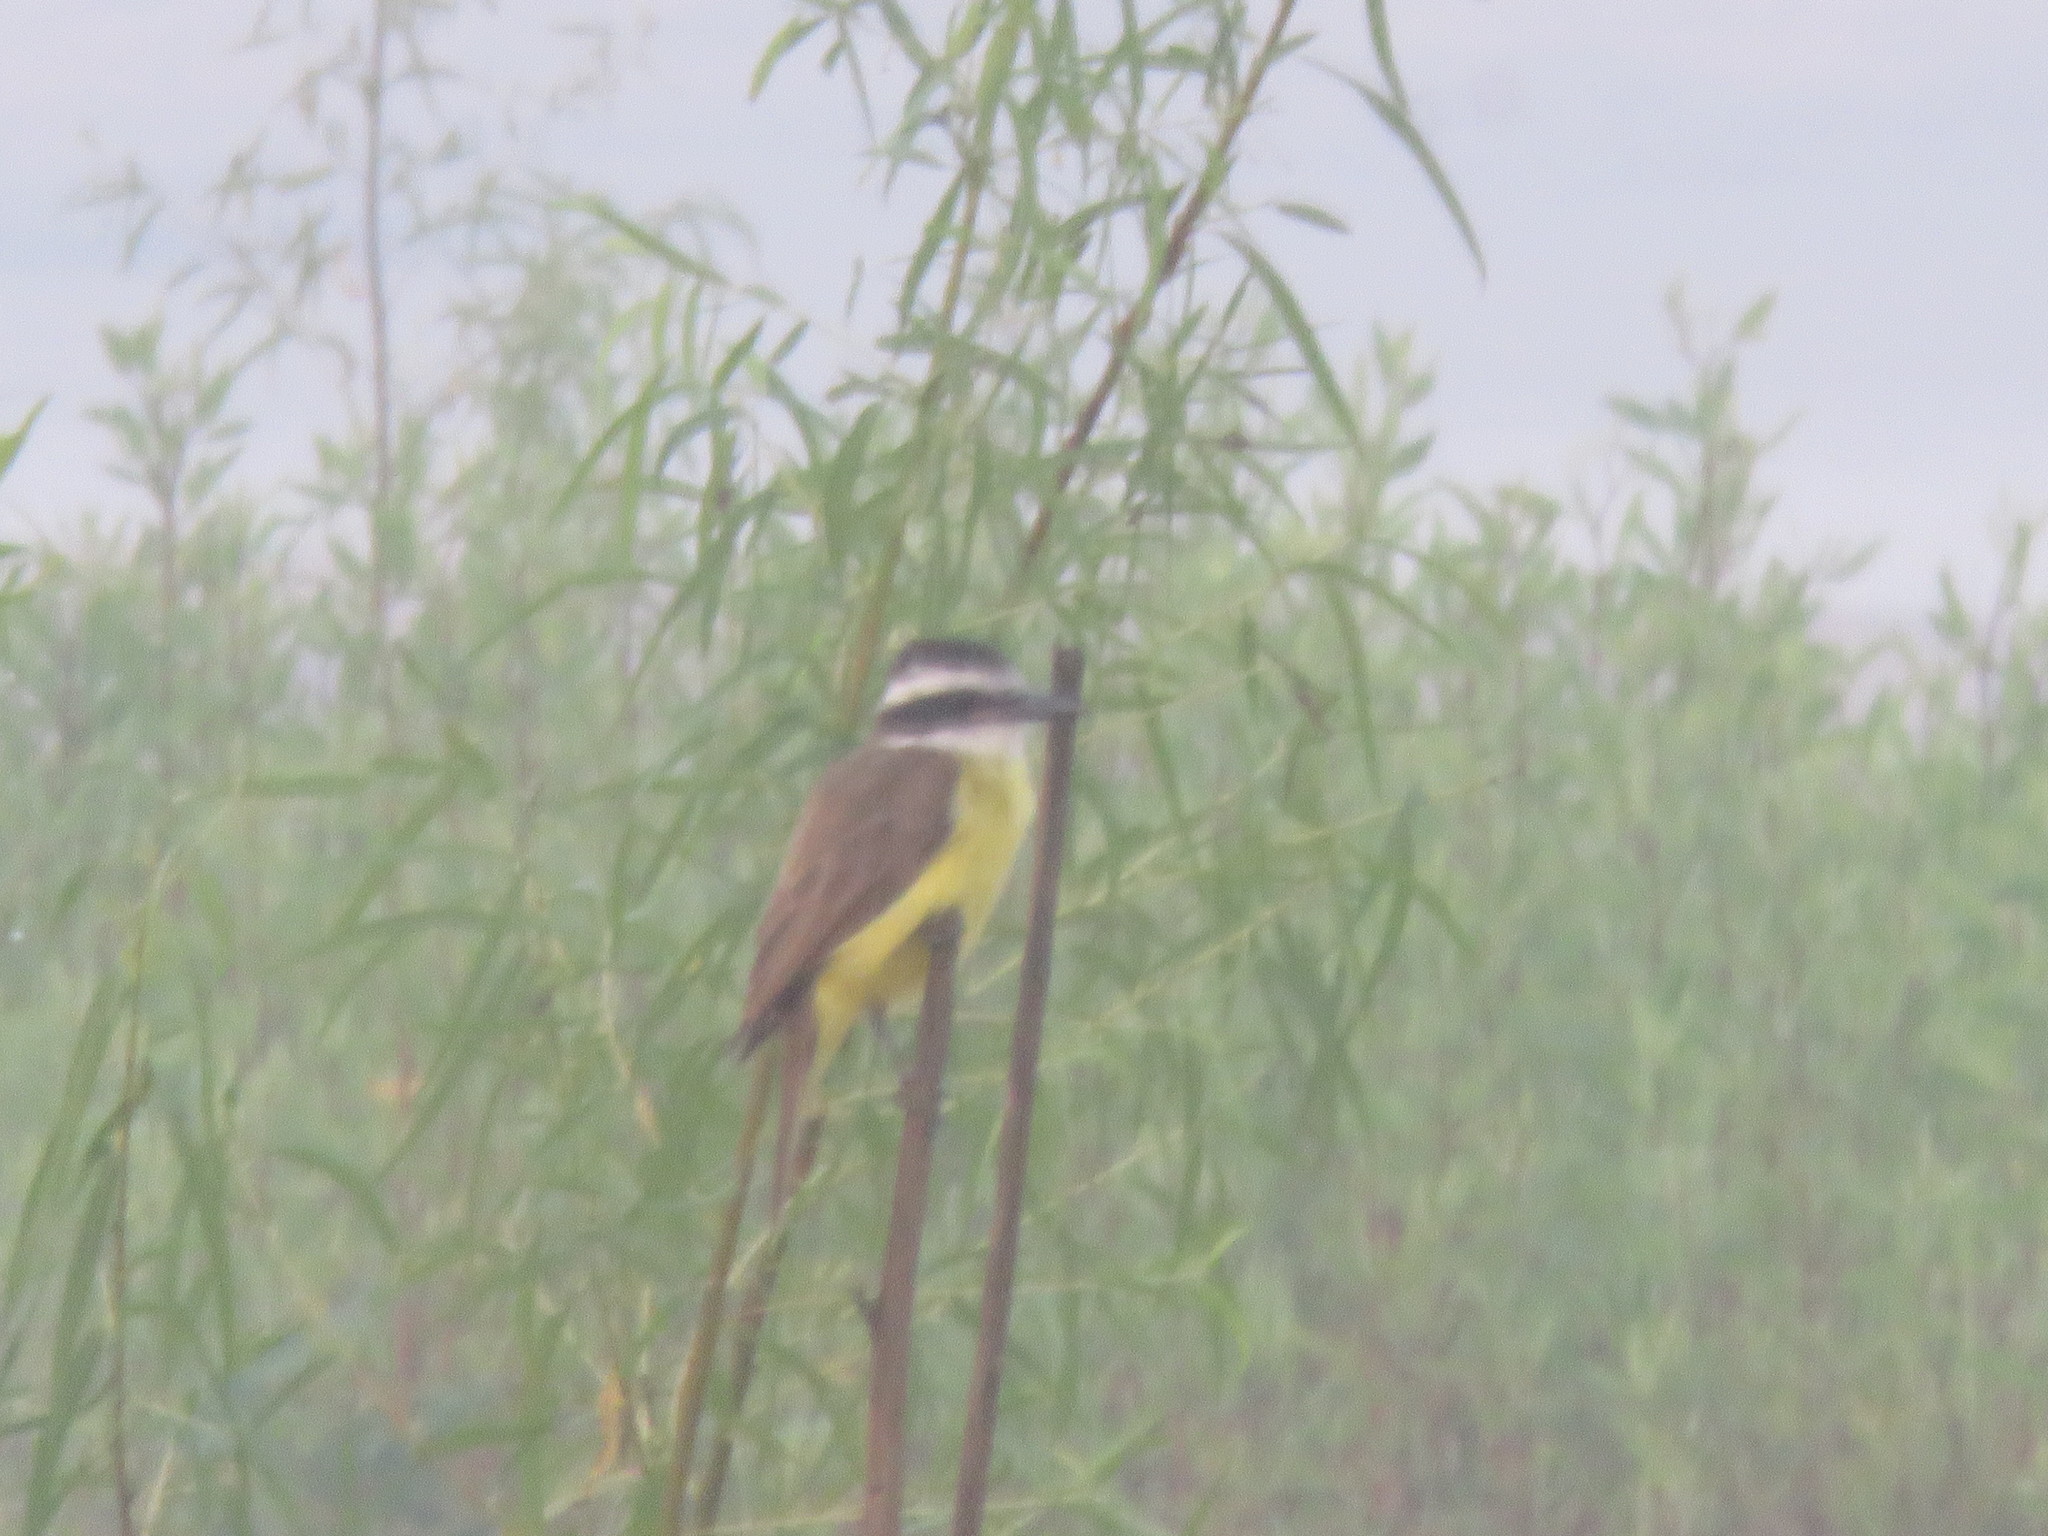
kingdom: Animalia
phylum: Chordata
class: Aves
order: Passeriformes
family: Tyrannidae
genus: Pitangus
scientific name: Pitangus sulphuratus
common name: Great kiskadee
